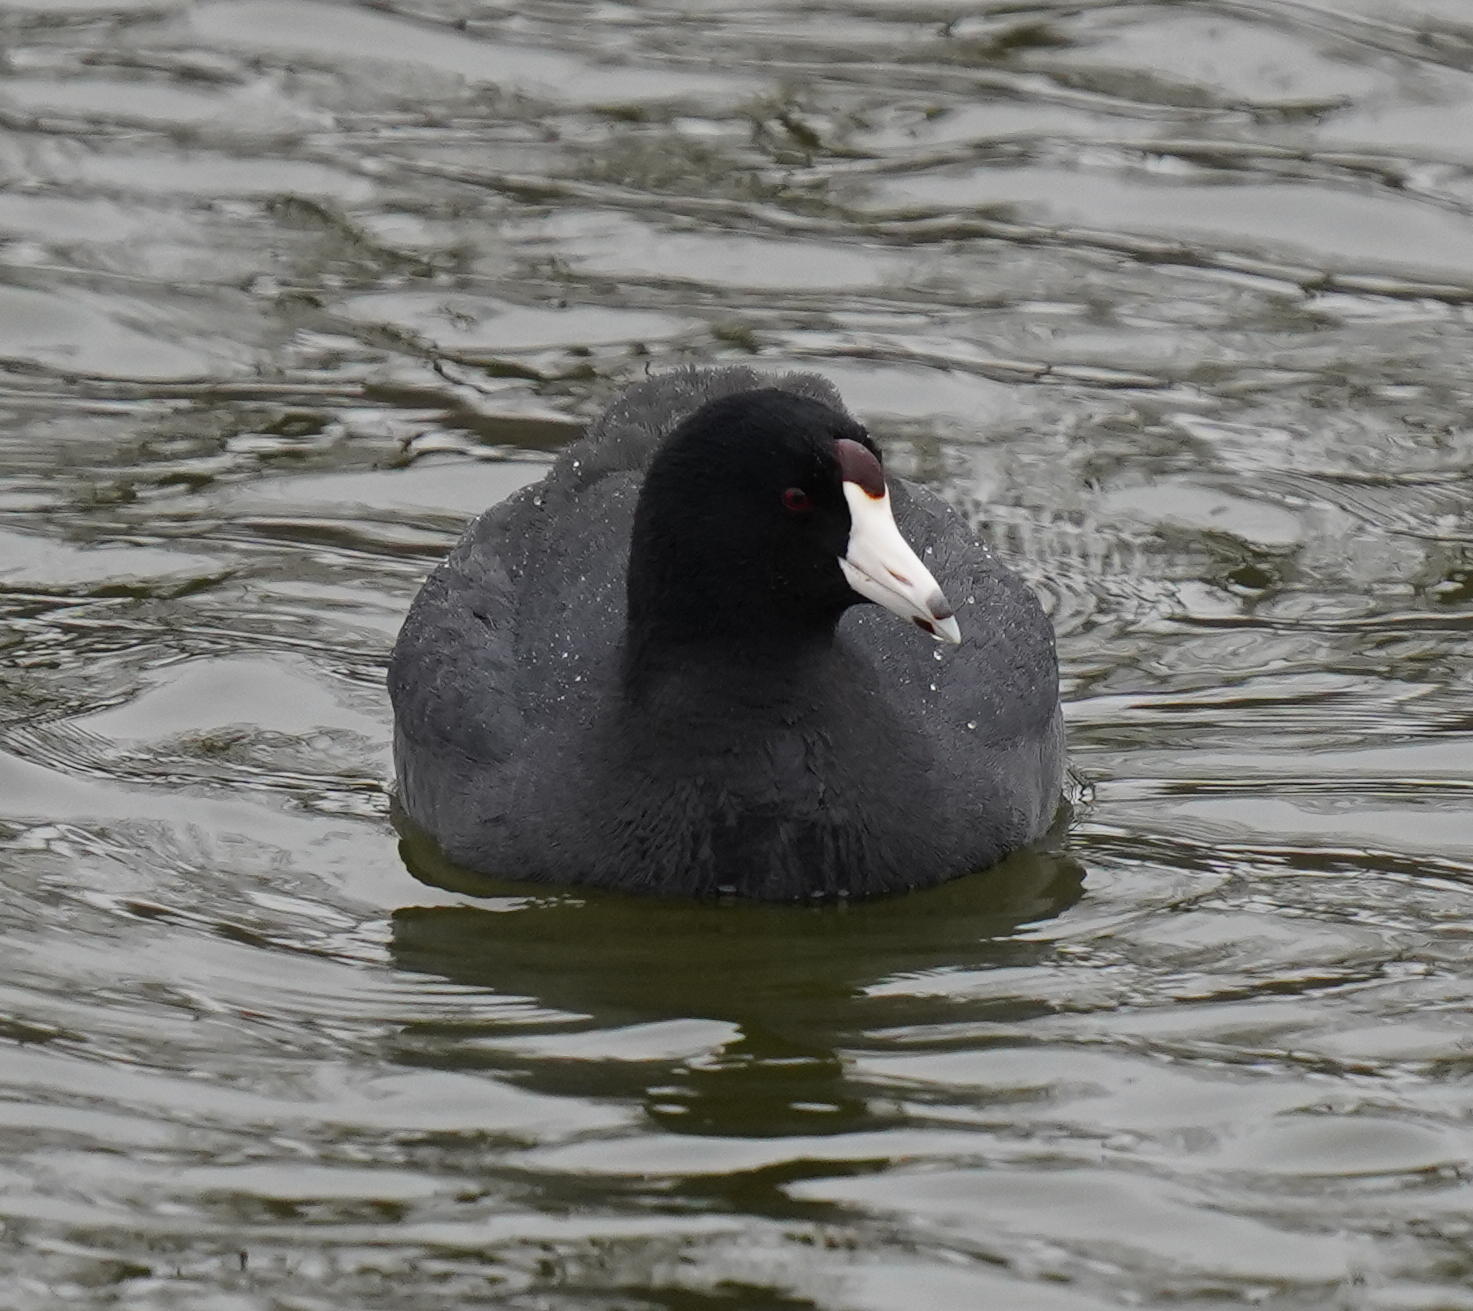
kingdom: Animalia
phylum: Chordata
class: Aves
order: Gruiformes
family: Rallidae
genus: Fulica
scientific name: Fulica americana
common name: American coot
